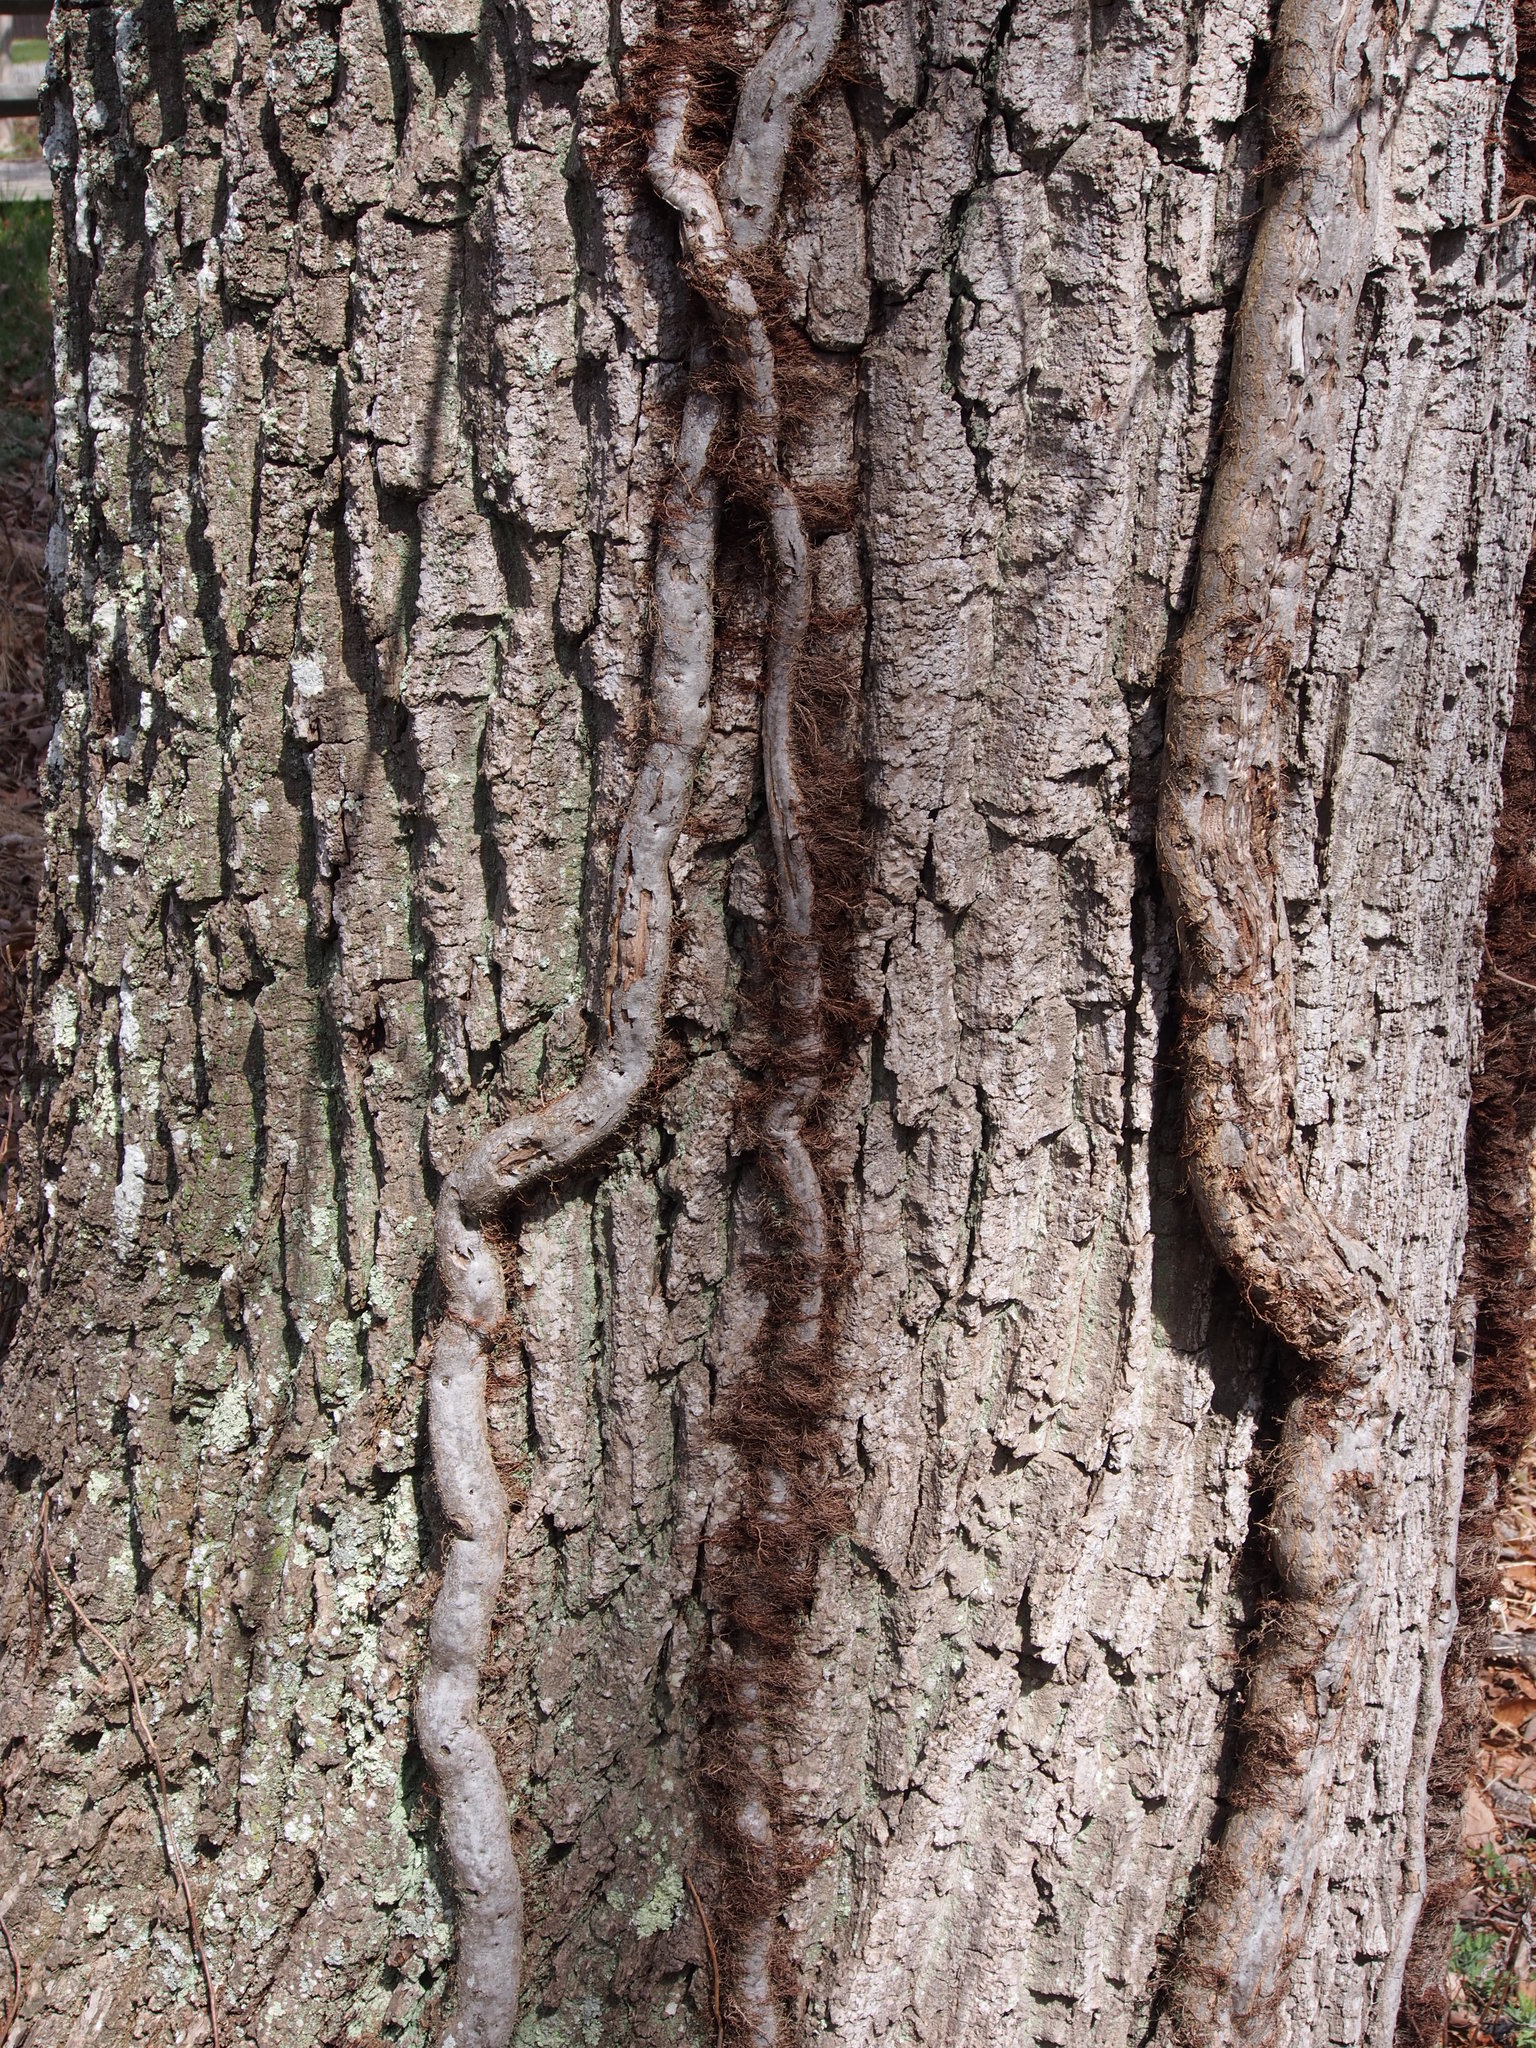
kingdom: Plantae
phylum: Tracheophyta
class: Magnoliopsida
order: Sapindales
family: Anacardiaceae
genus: Toxicodendron
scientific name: Toxicodendron radicans
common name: Poison ivy
